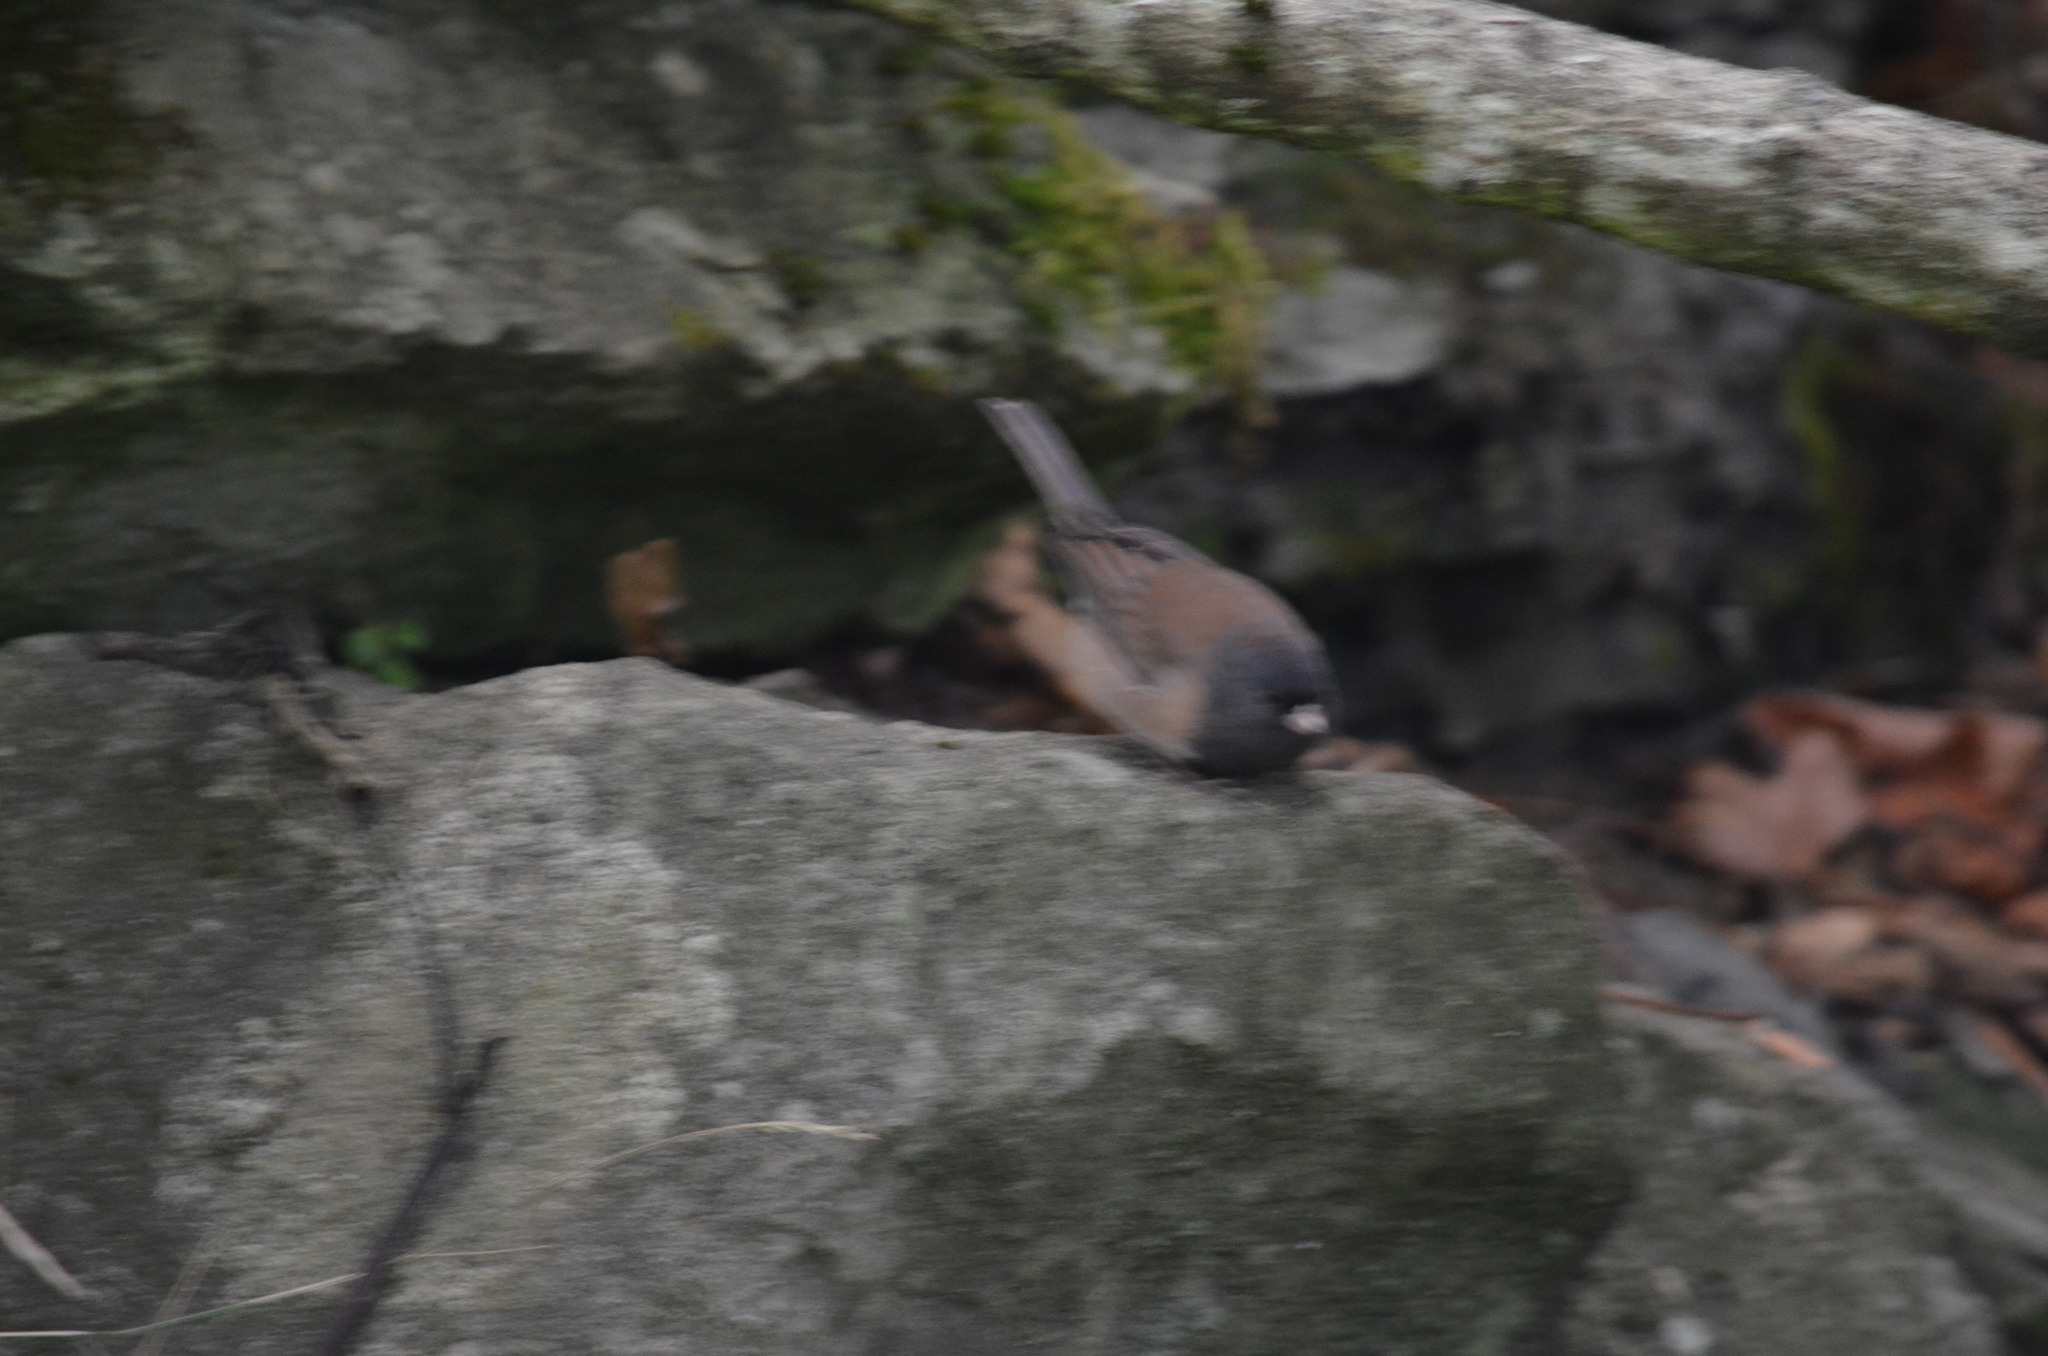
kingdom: Animalia
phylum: Chordata
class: Aves
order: Passeriformes
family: Passerellidae
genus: Junco
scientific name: Junco hyemalis
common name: Dark-eyed junco
